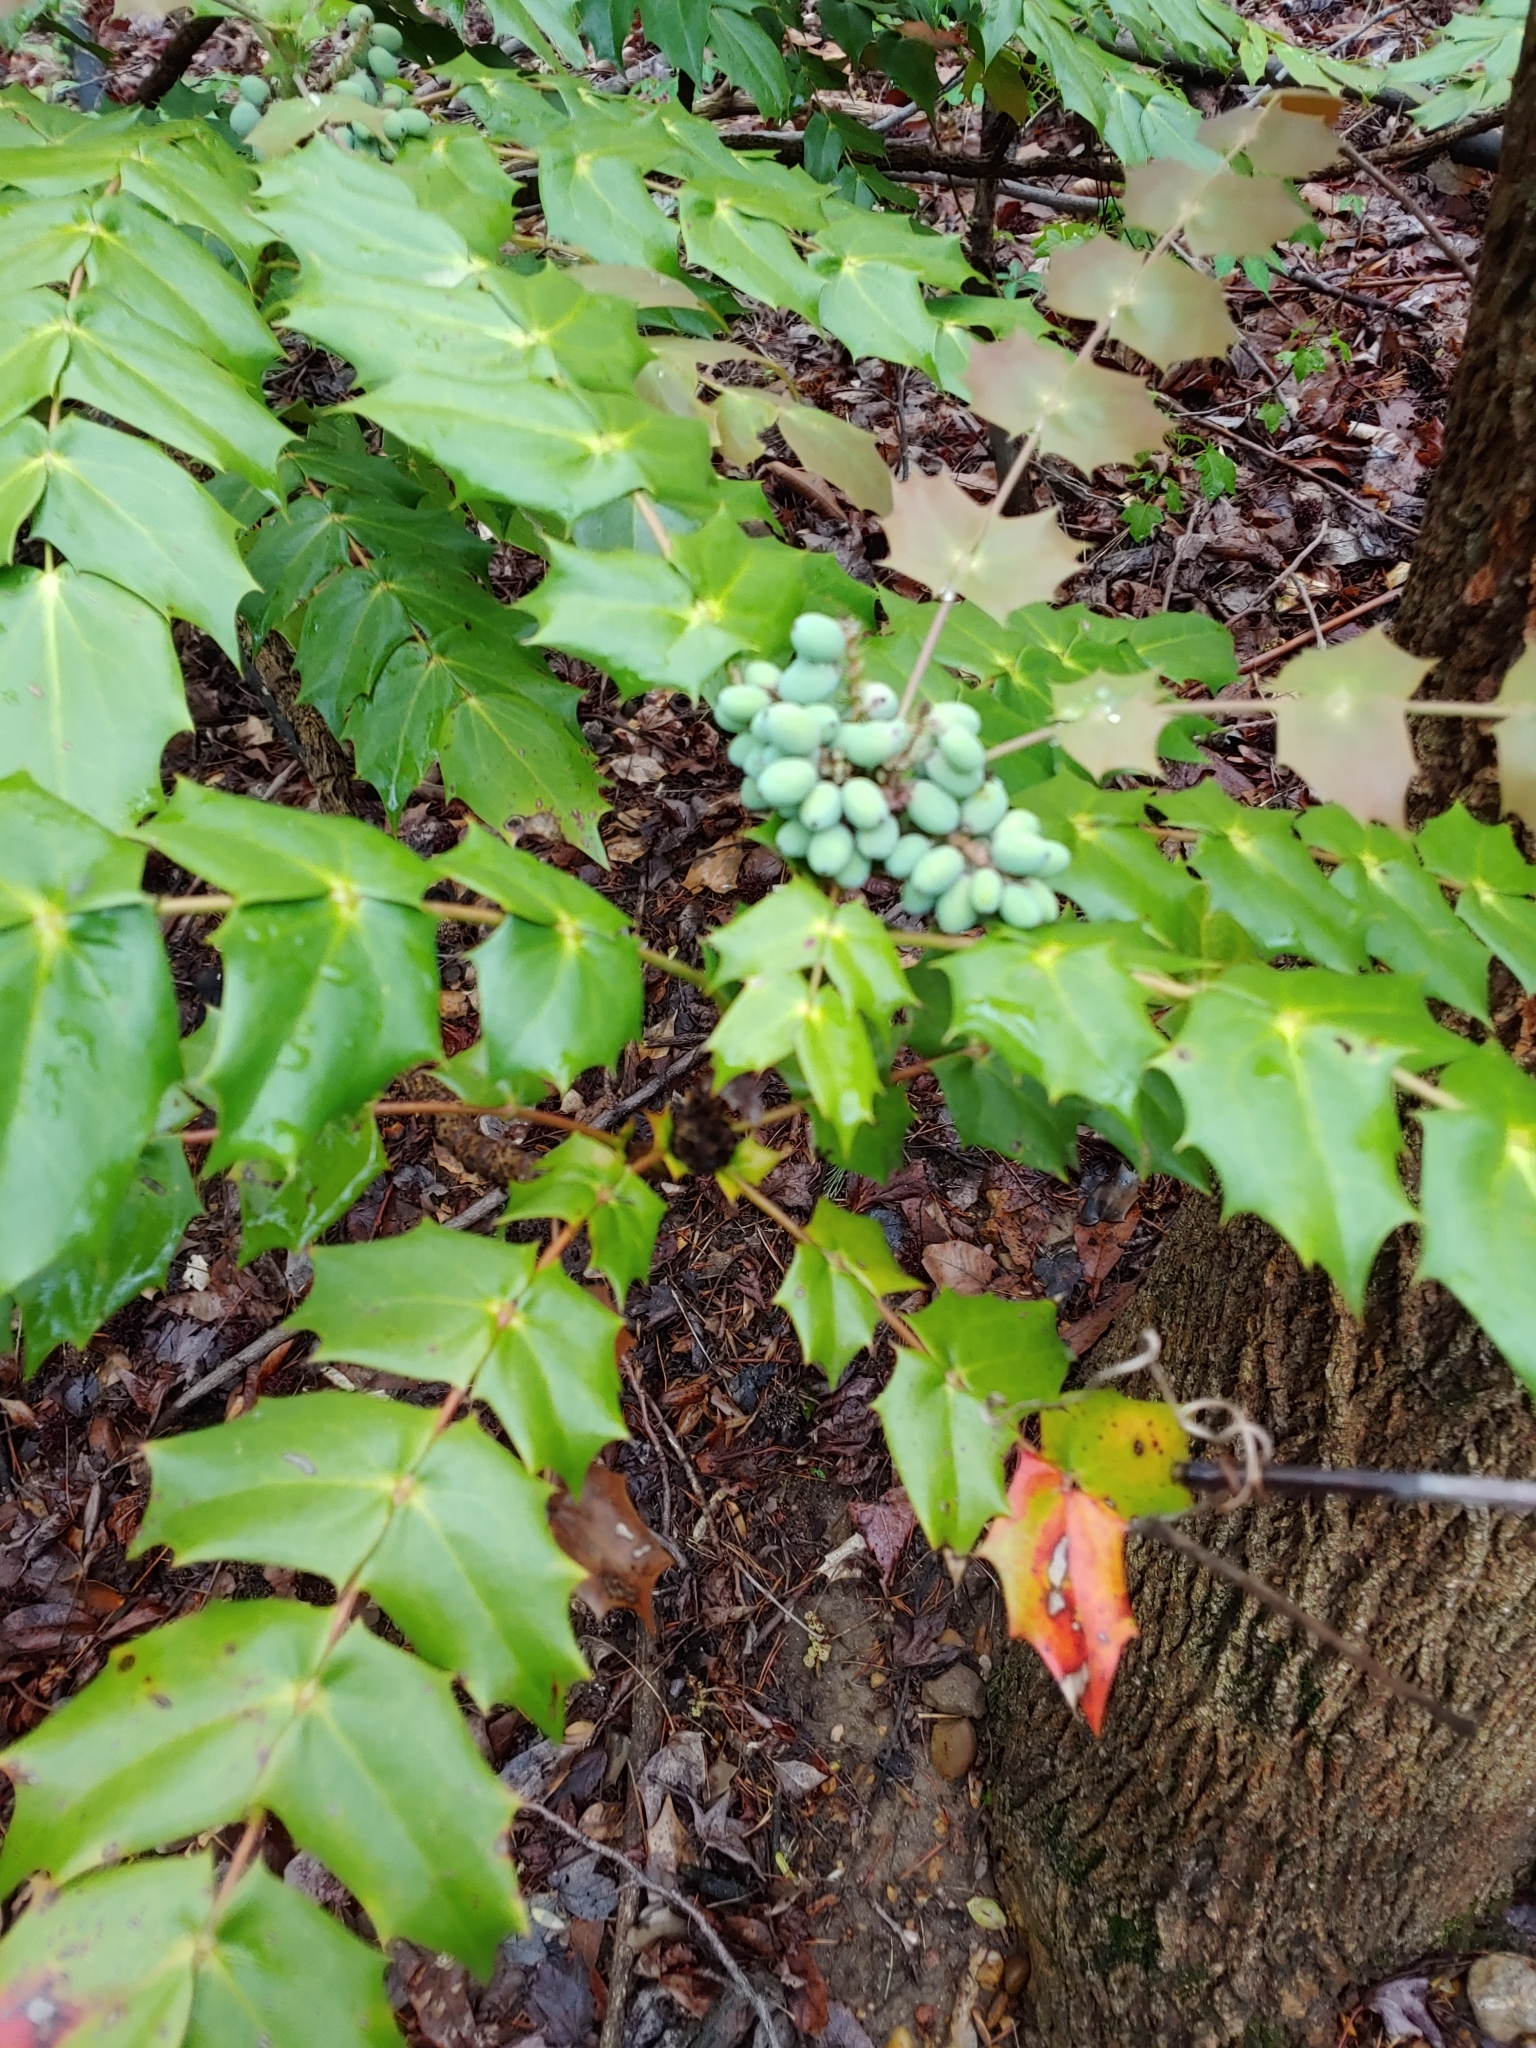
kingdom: Plantae
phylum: Tracheophyta
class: Magnoliopsida
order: Ranunculales
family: Berberidaceae
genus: Mahonia
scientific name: Mahonia bealei
